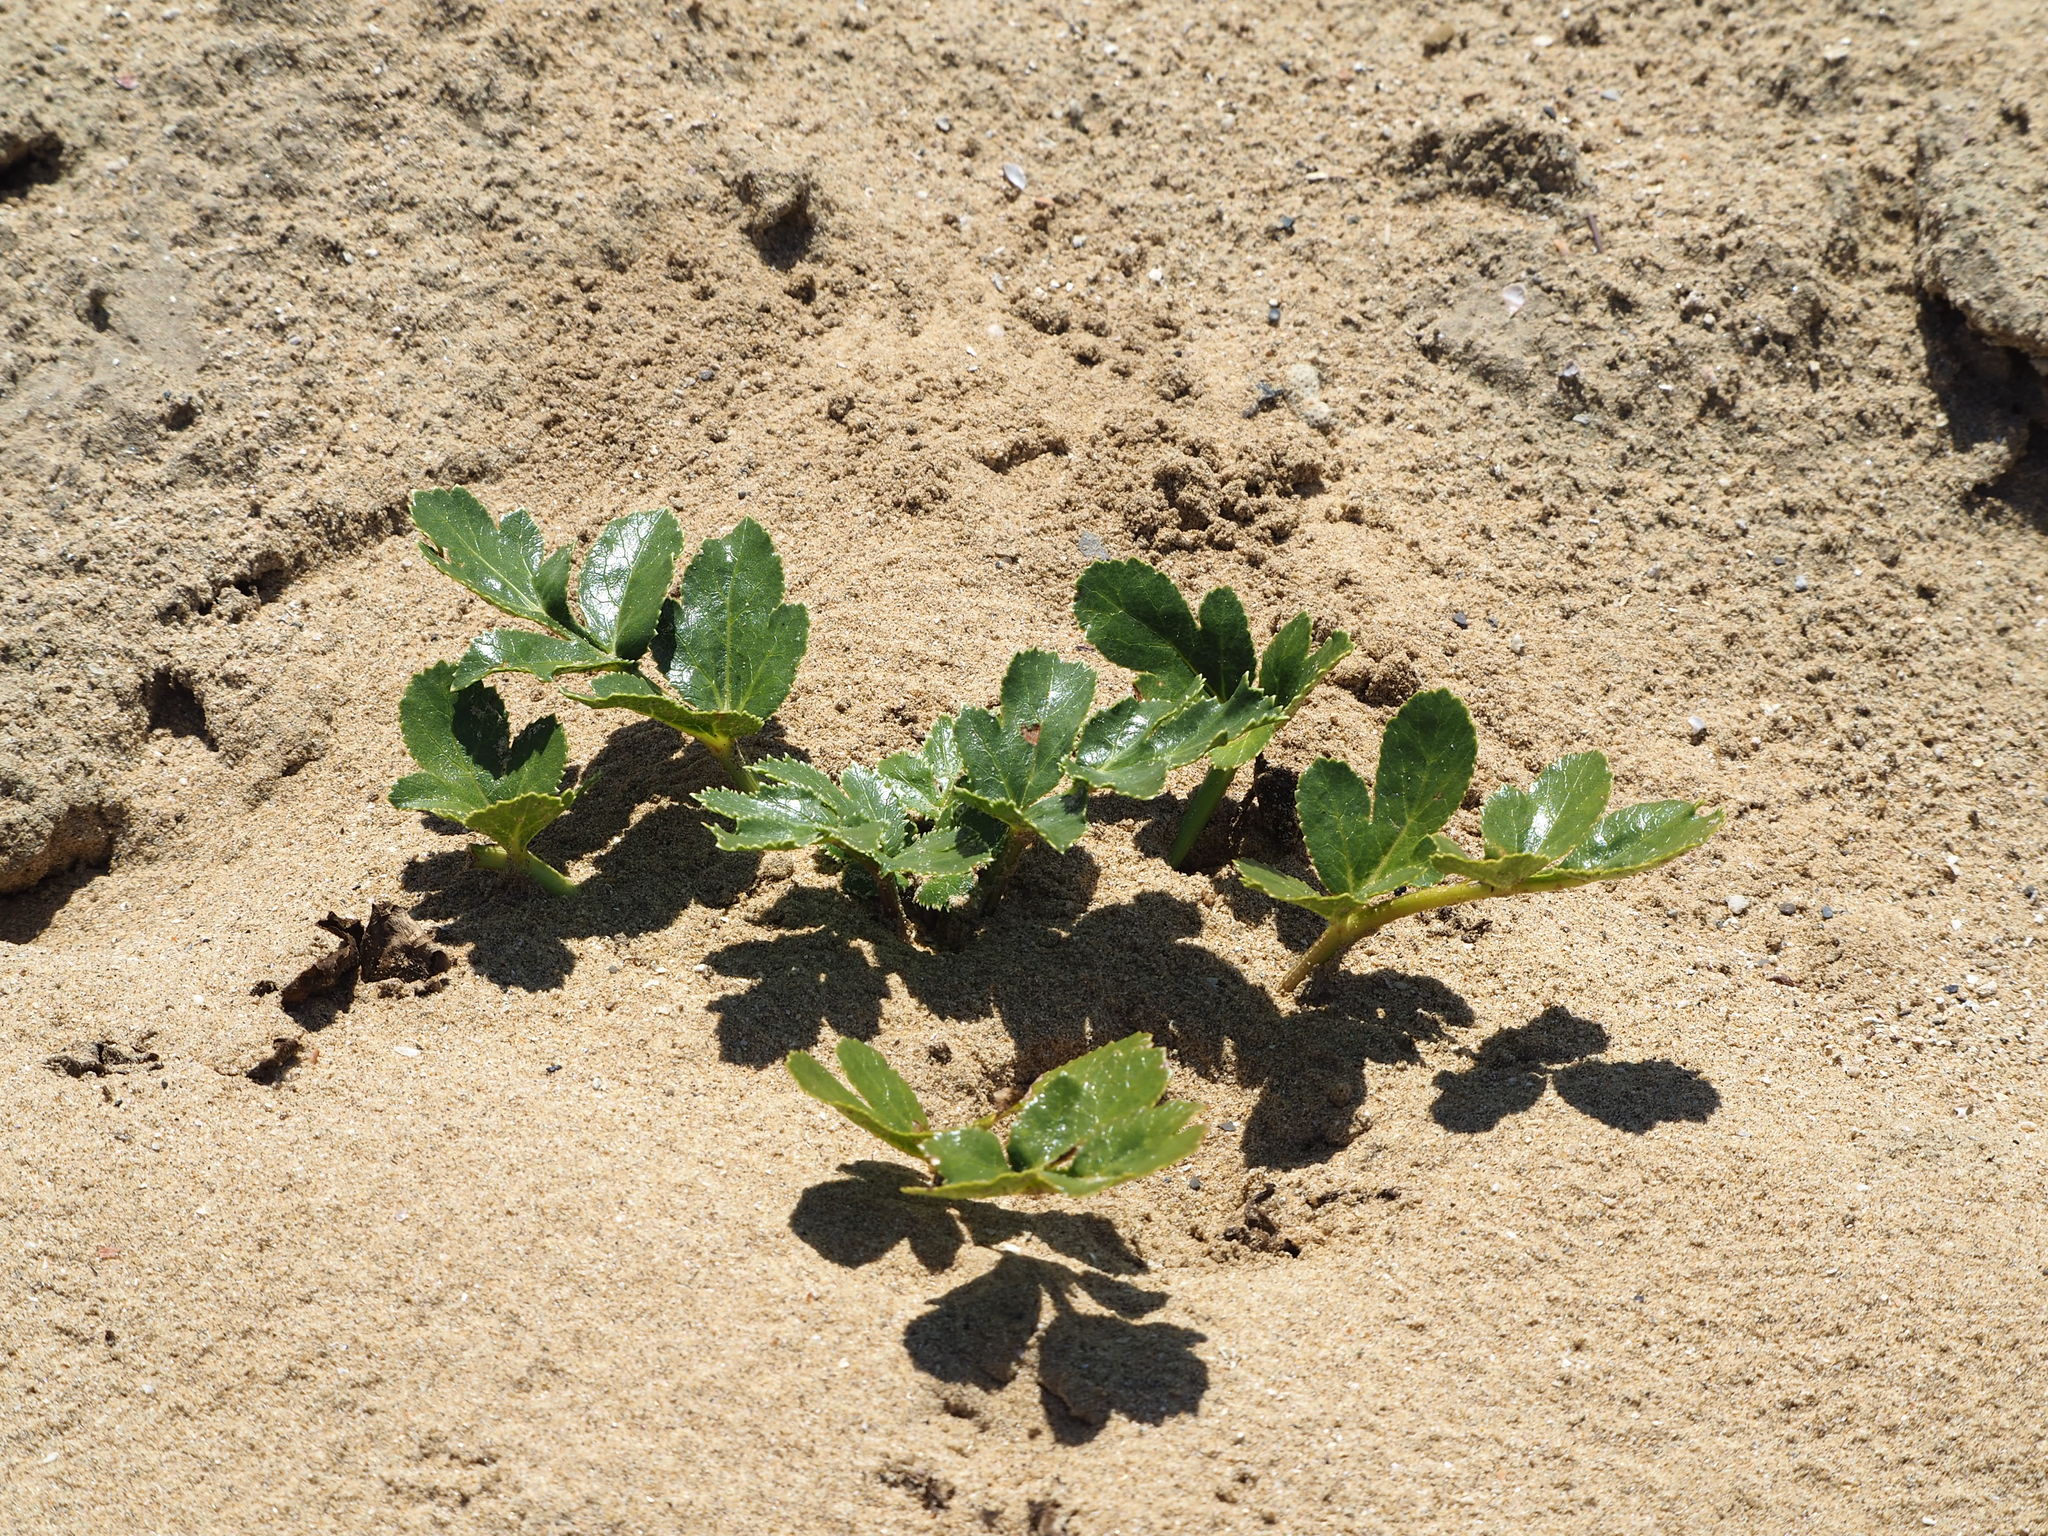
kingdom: Plantae
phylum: Tracheophyta
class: Magnoliopsida
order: Apiales
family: Apiaceae
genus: Glehnia
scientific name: Glehnia littoralis
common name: Beach silvertop
